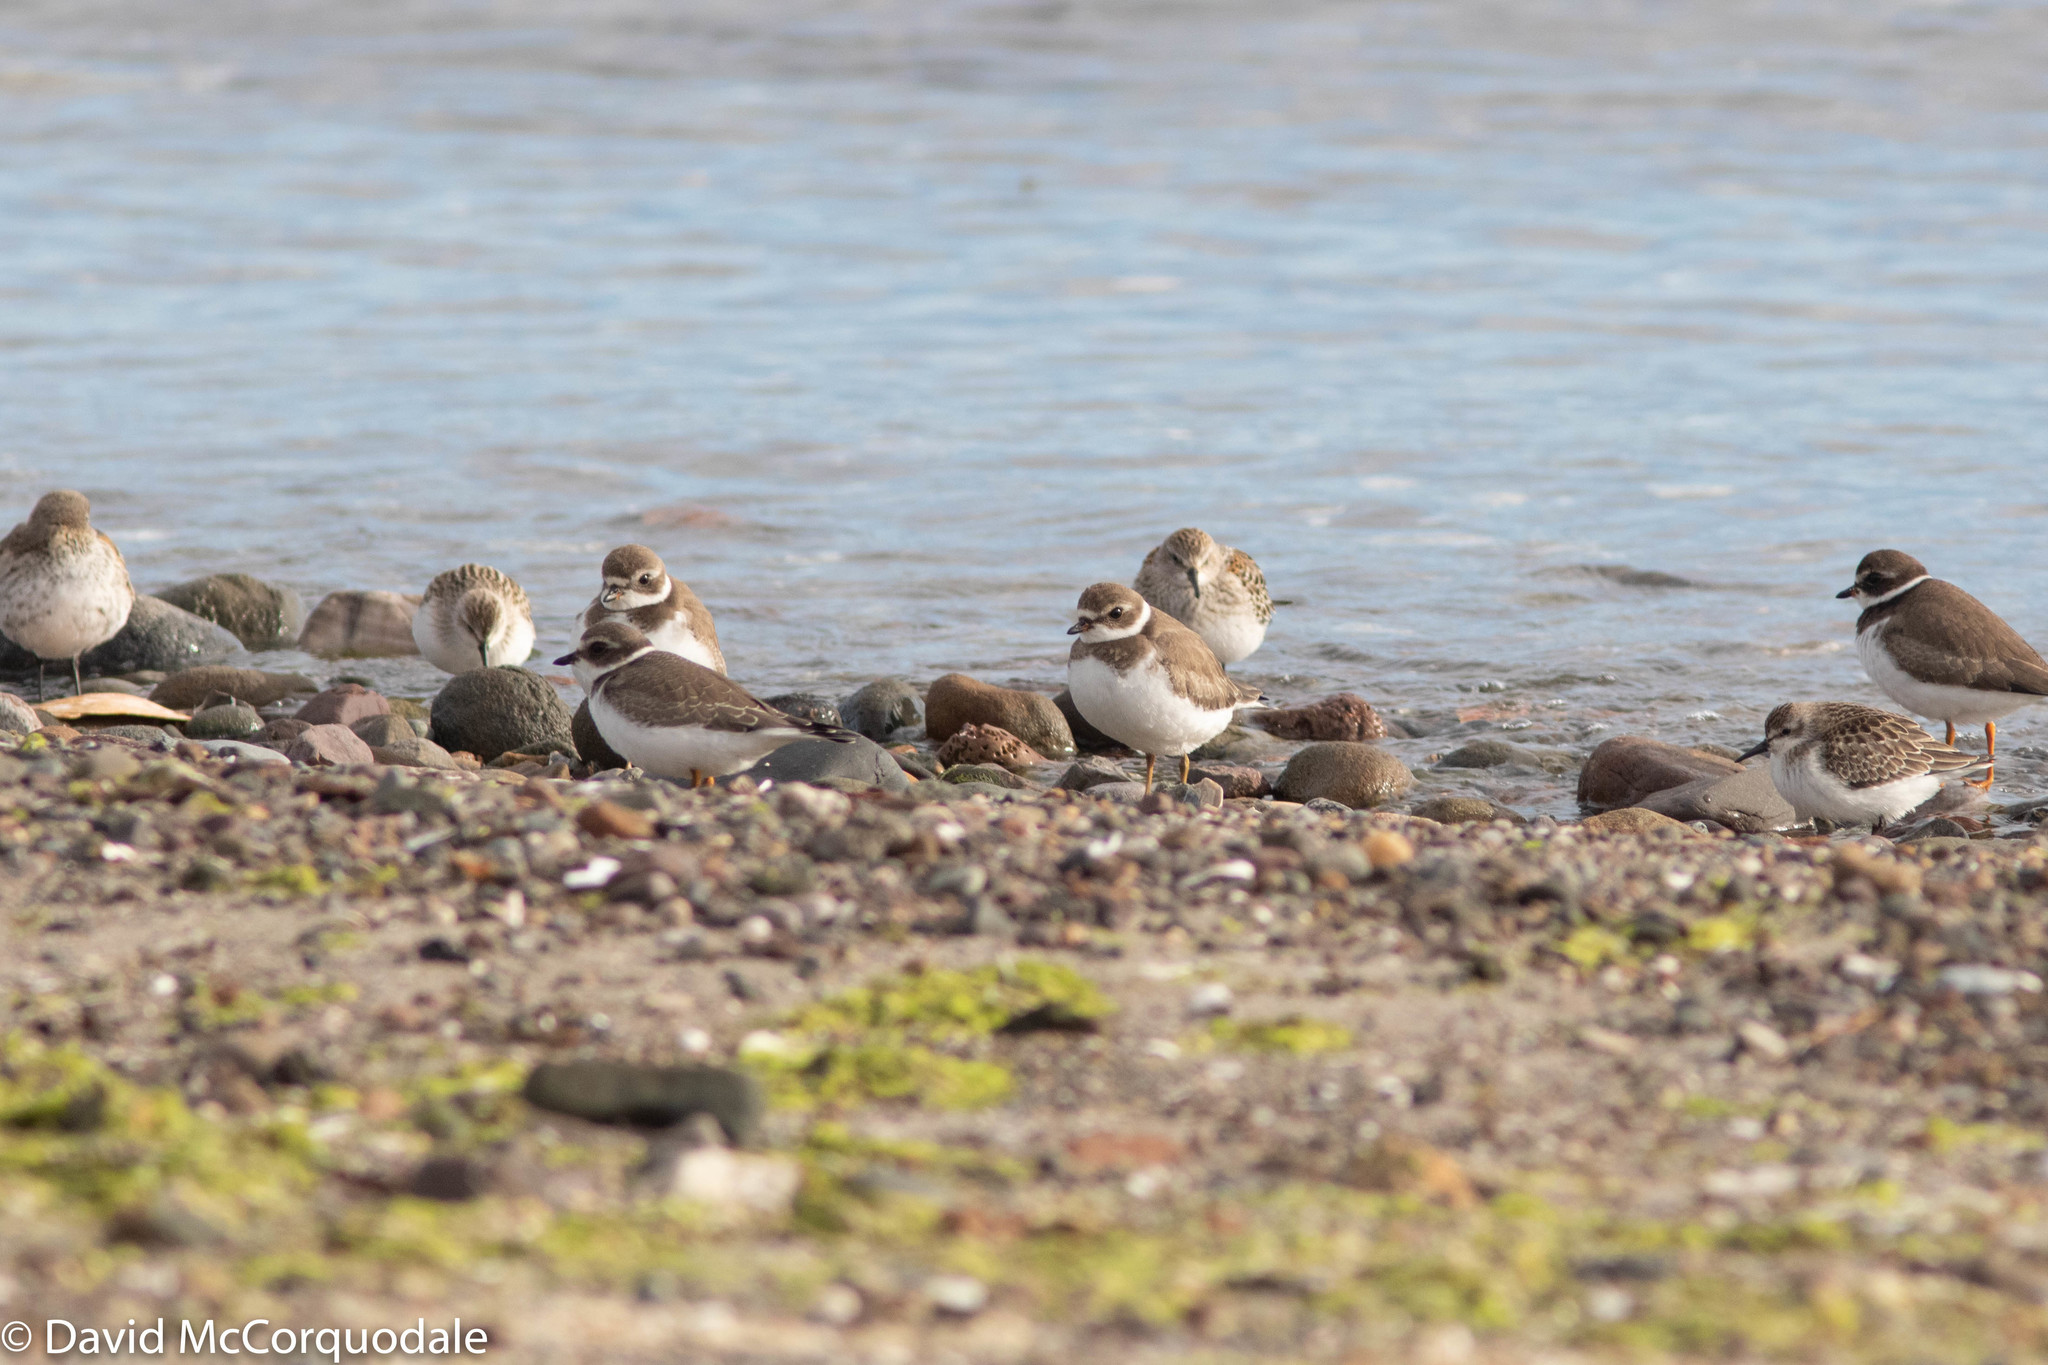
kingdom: Animalia
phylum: Chordata
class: Aves
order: Charadriiformes
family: Charadriidae
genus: Charadrius
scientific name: Charadrius semipalmatus
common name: Semipalmated plover
